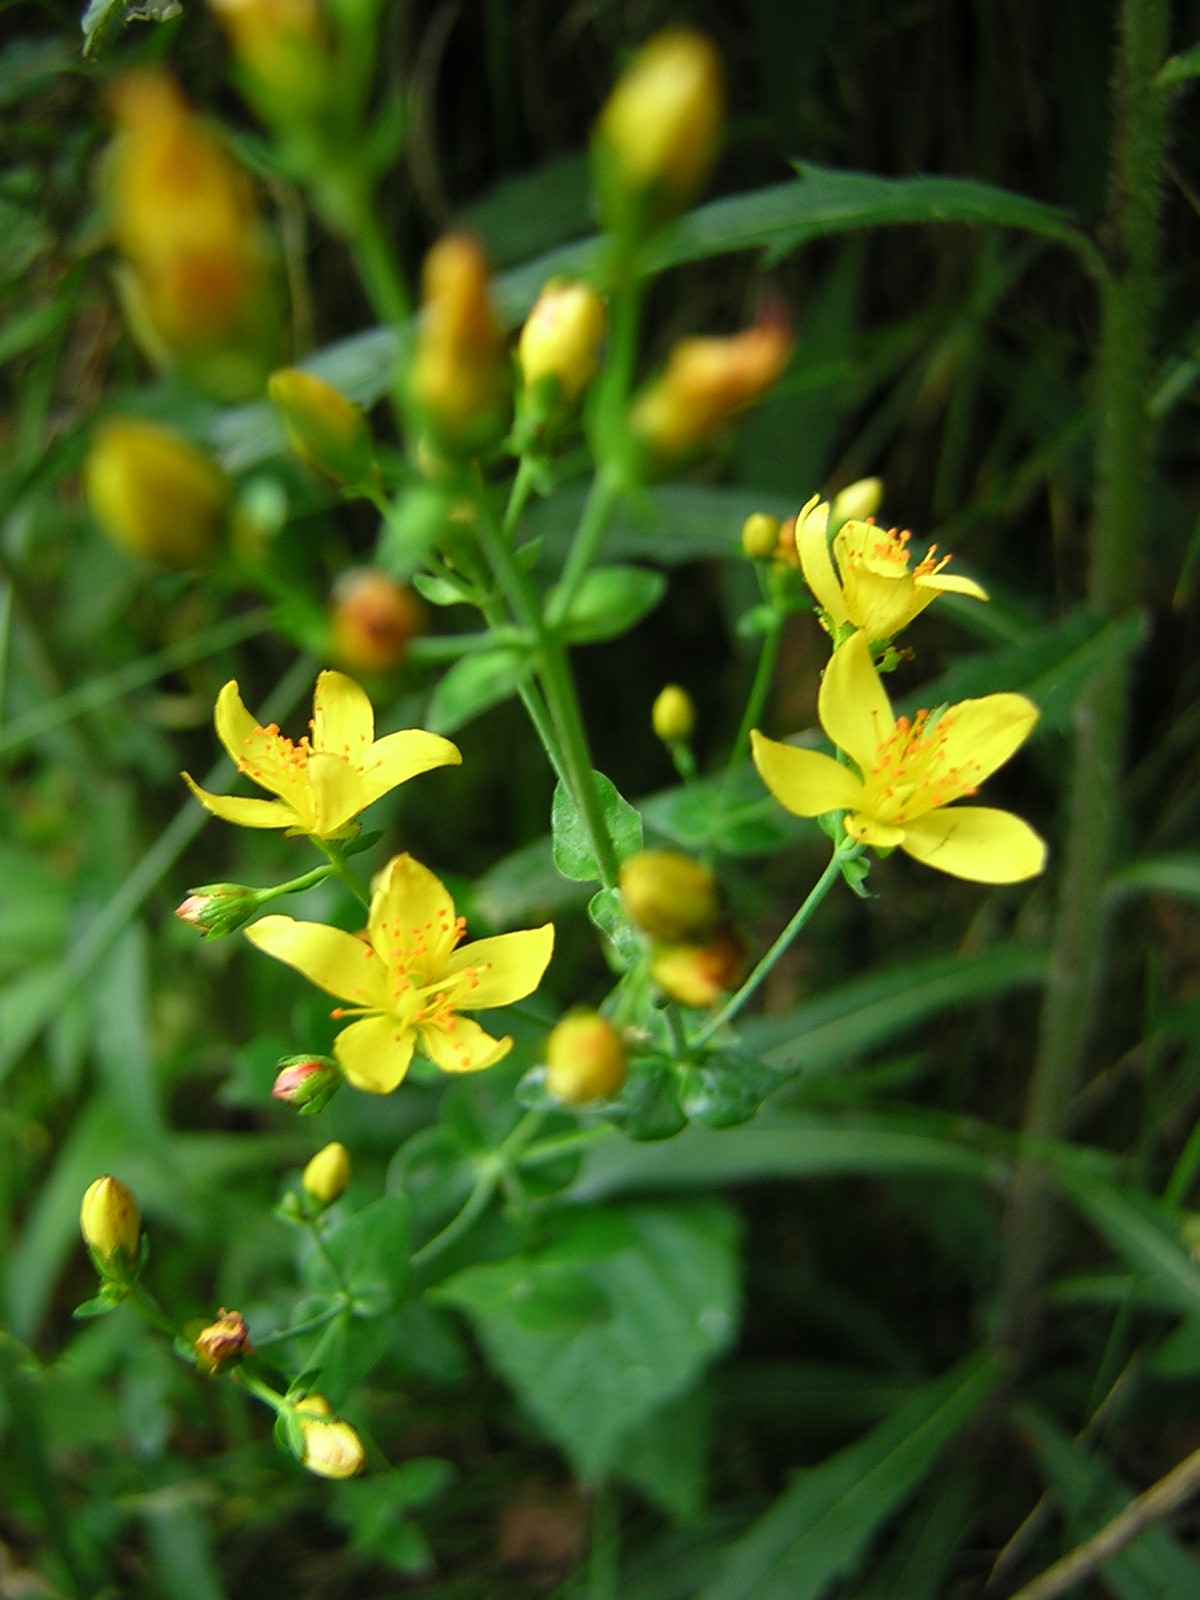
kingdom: Plantae
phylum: Tracheophyta
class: Magnoliopsida
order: Malpighiales
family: Hypericaceae
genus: Hypericum
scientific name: Hypericum pulchrum
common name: Slender st. john's-wort
